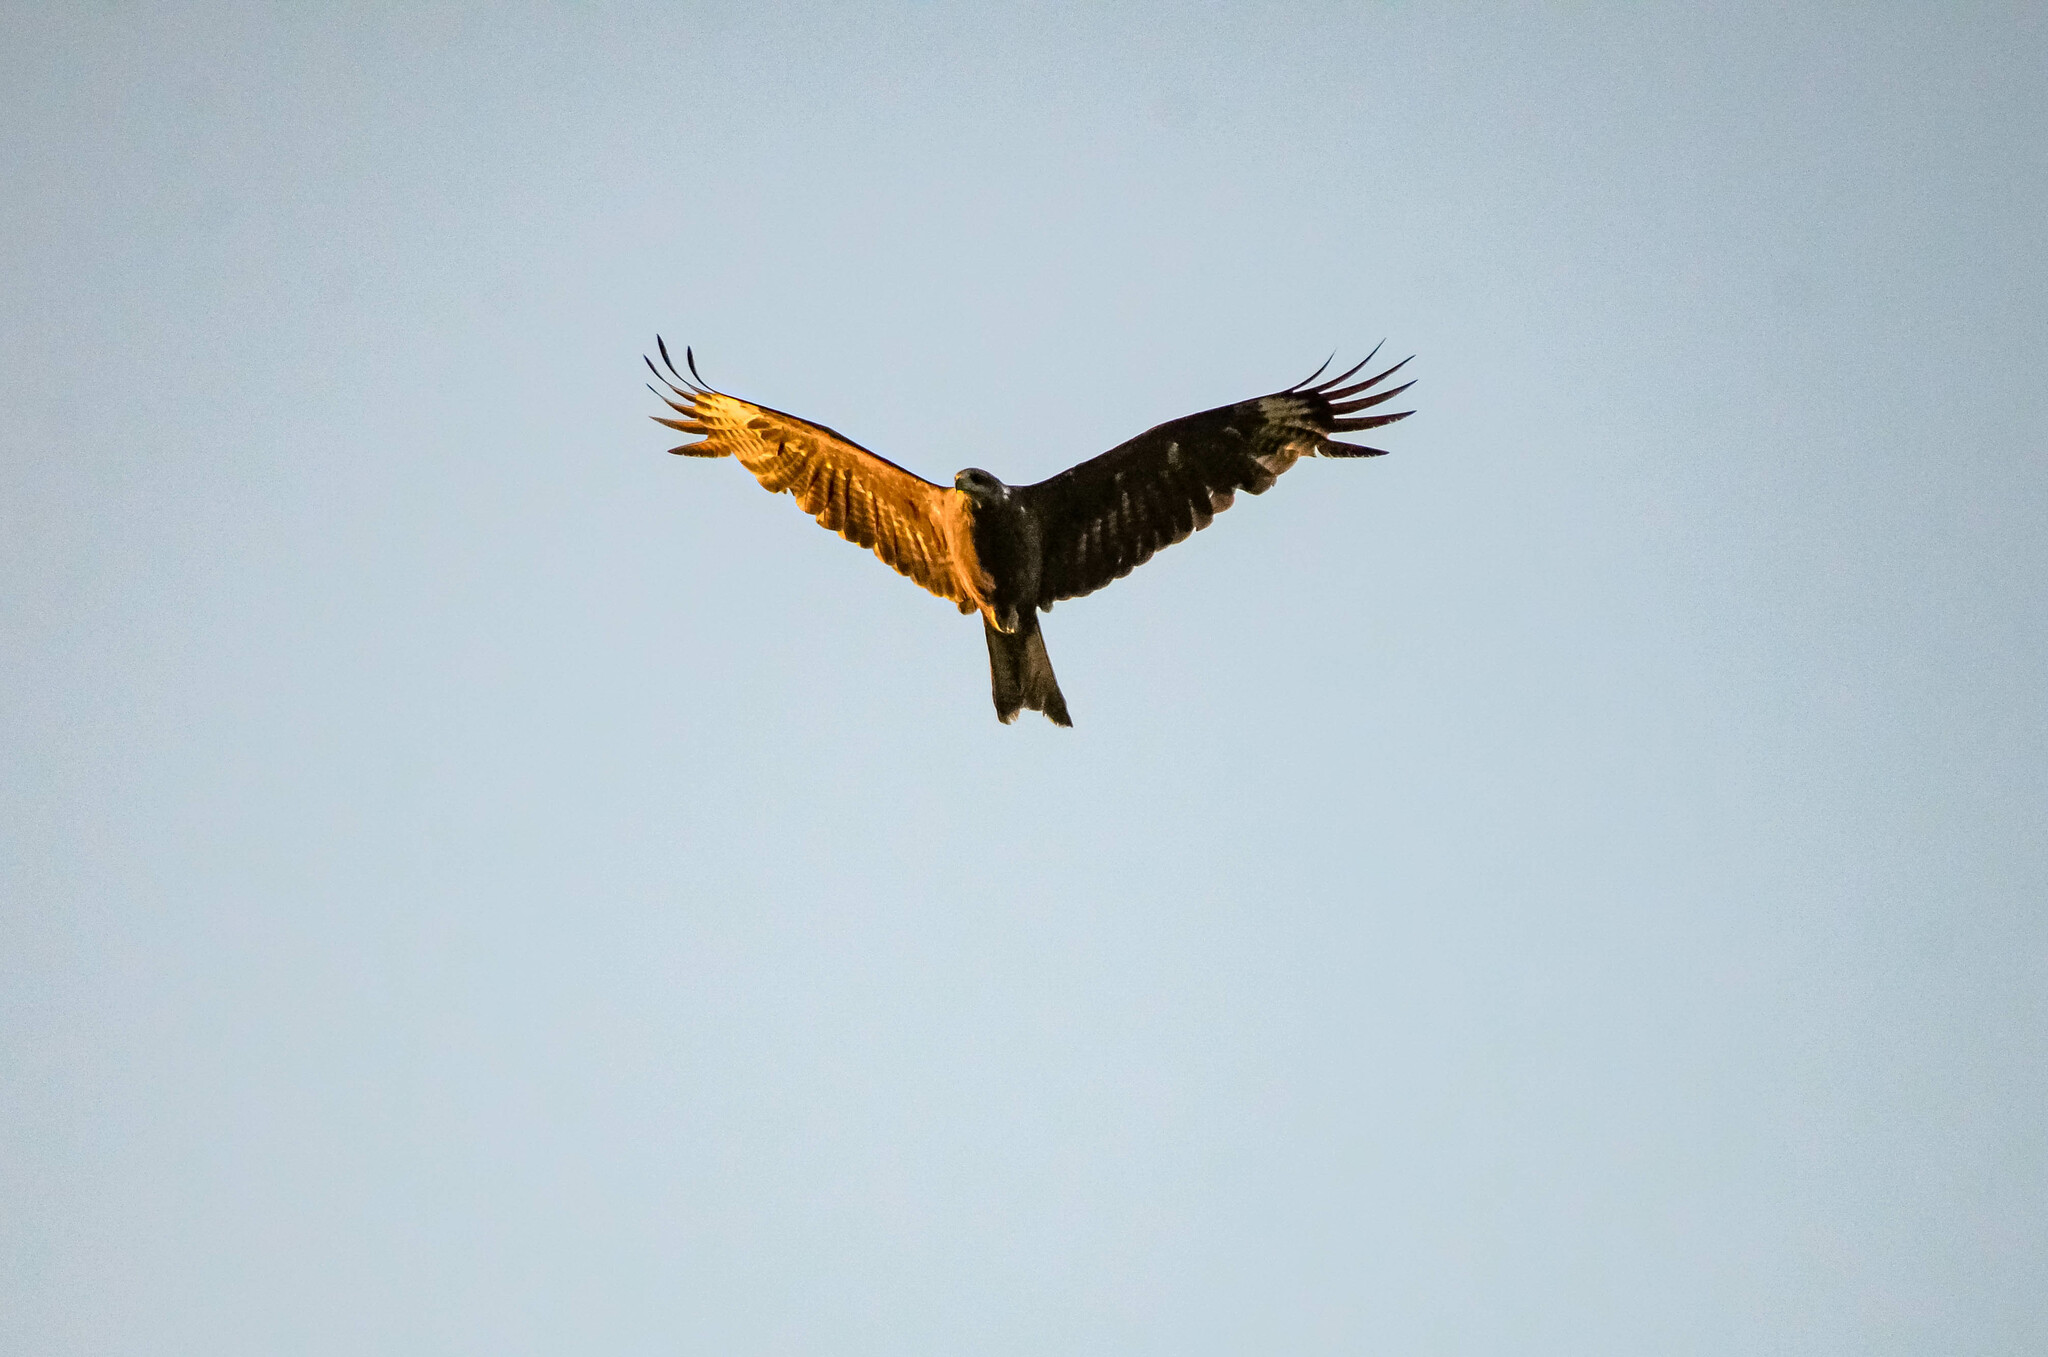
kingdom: Animalia
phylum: Chordata
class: Aves
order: Accipitriformes
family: Accipitridae
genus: Milvus
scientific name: Milvus migrans
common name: Black kite
